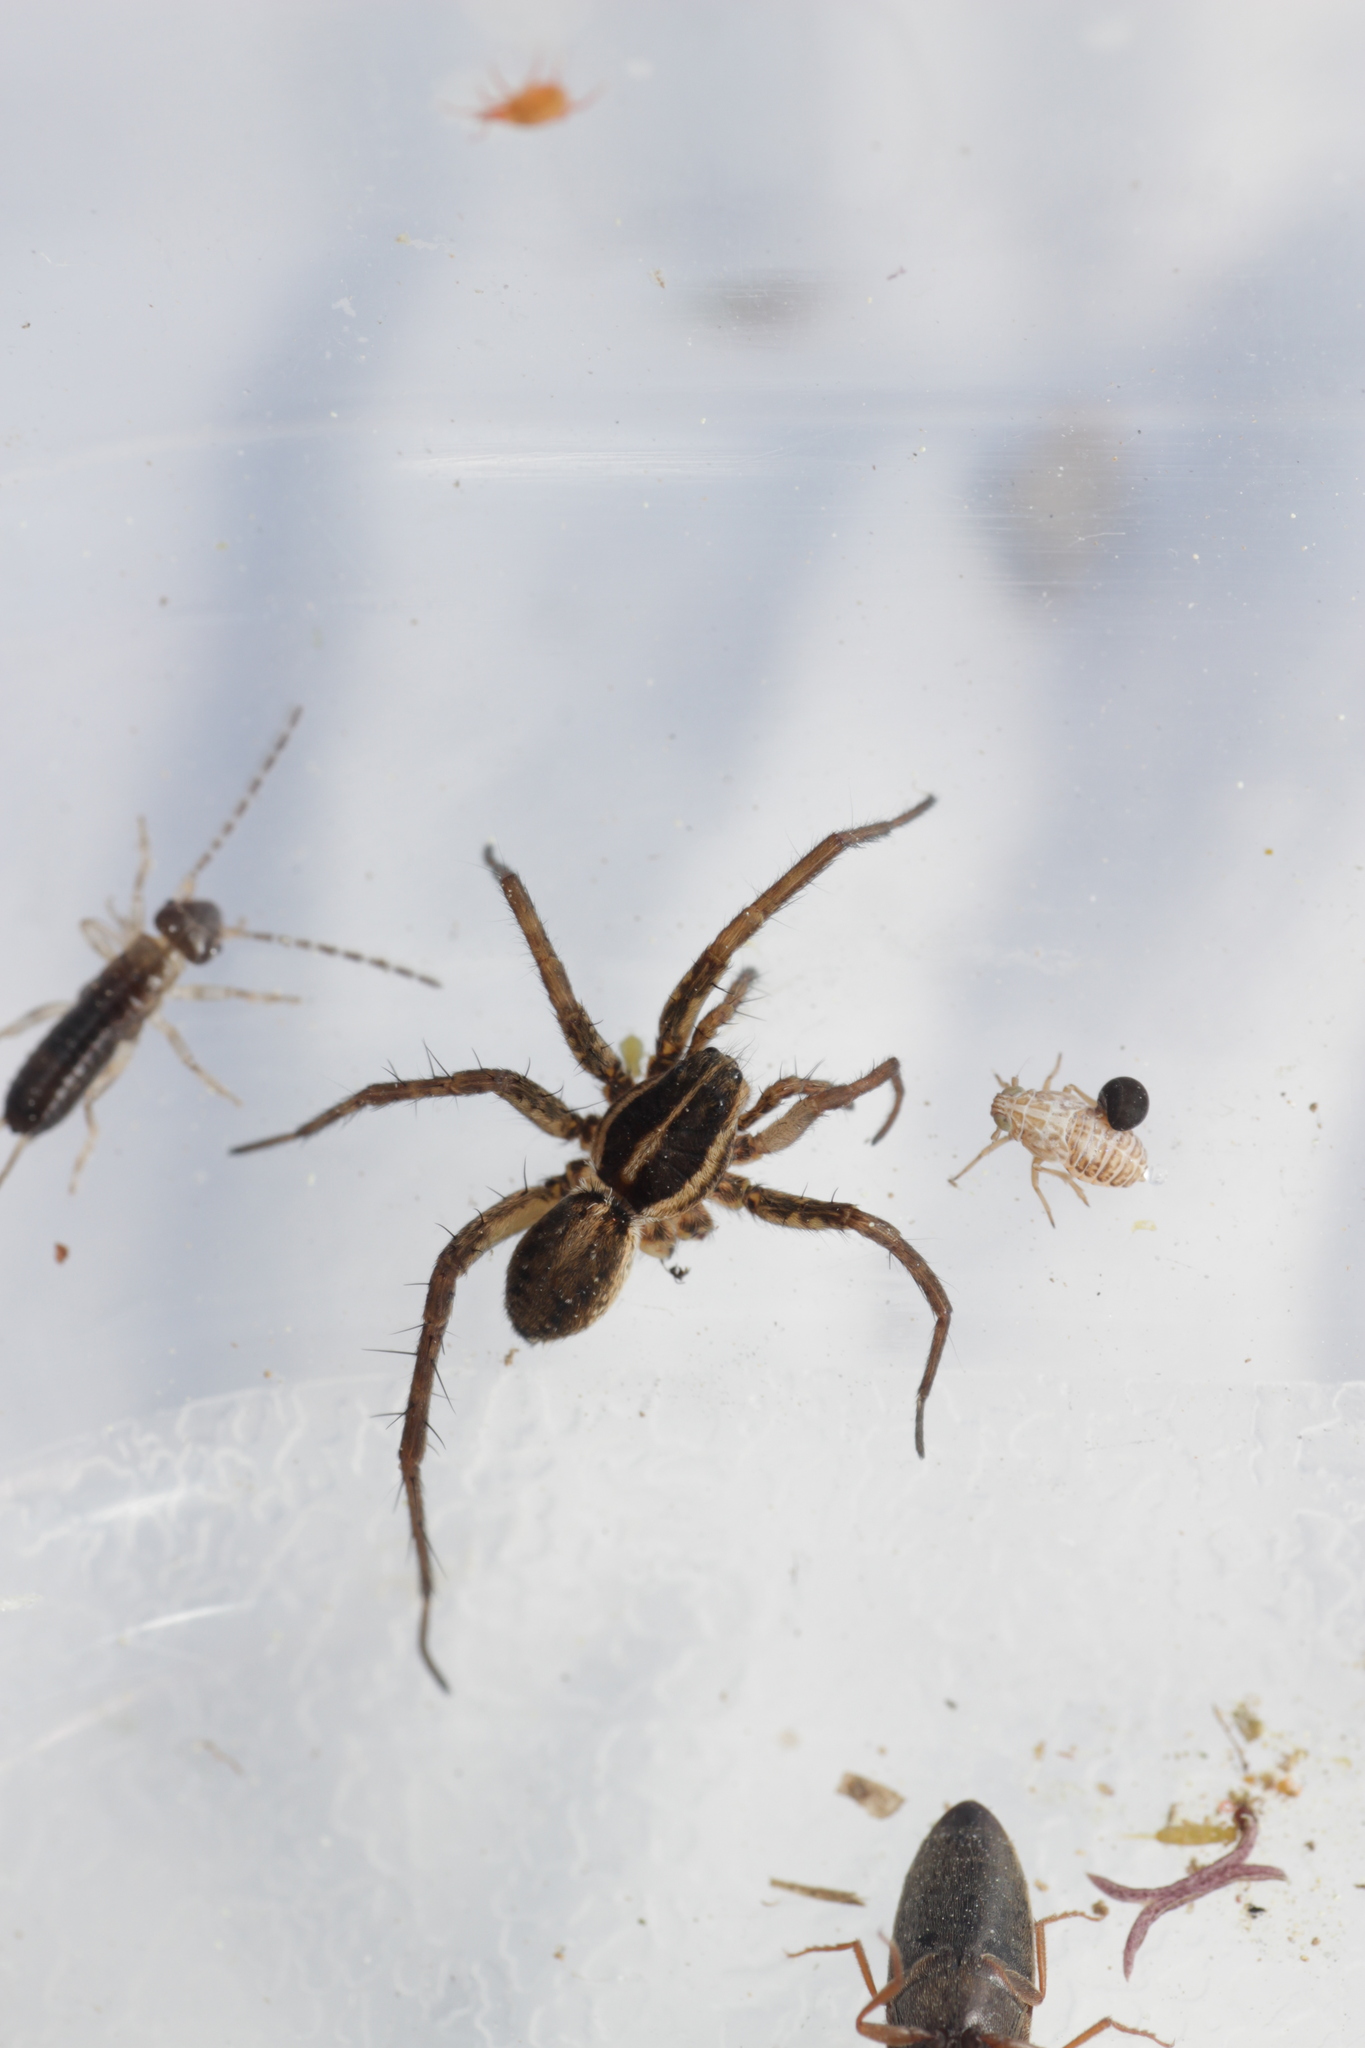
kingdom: Animalia
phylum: Arthropoda
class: Arachnida
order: Araneae
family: Lycosidae
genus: Pardosa
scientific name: Pardosa
